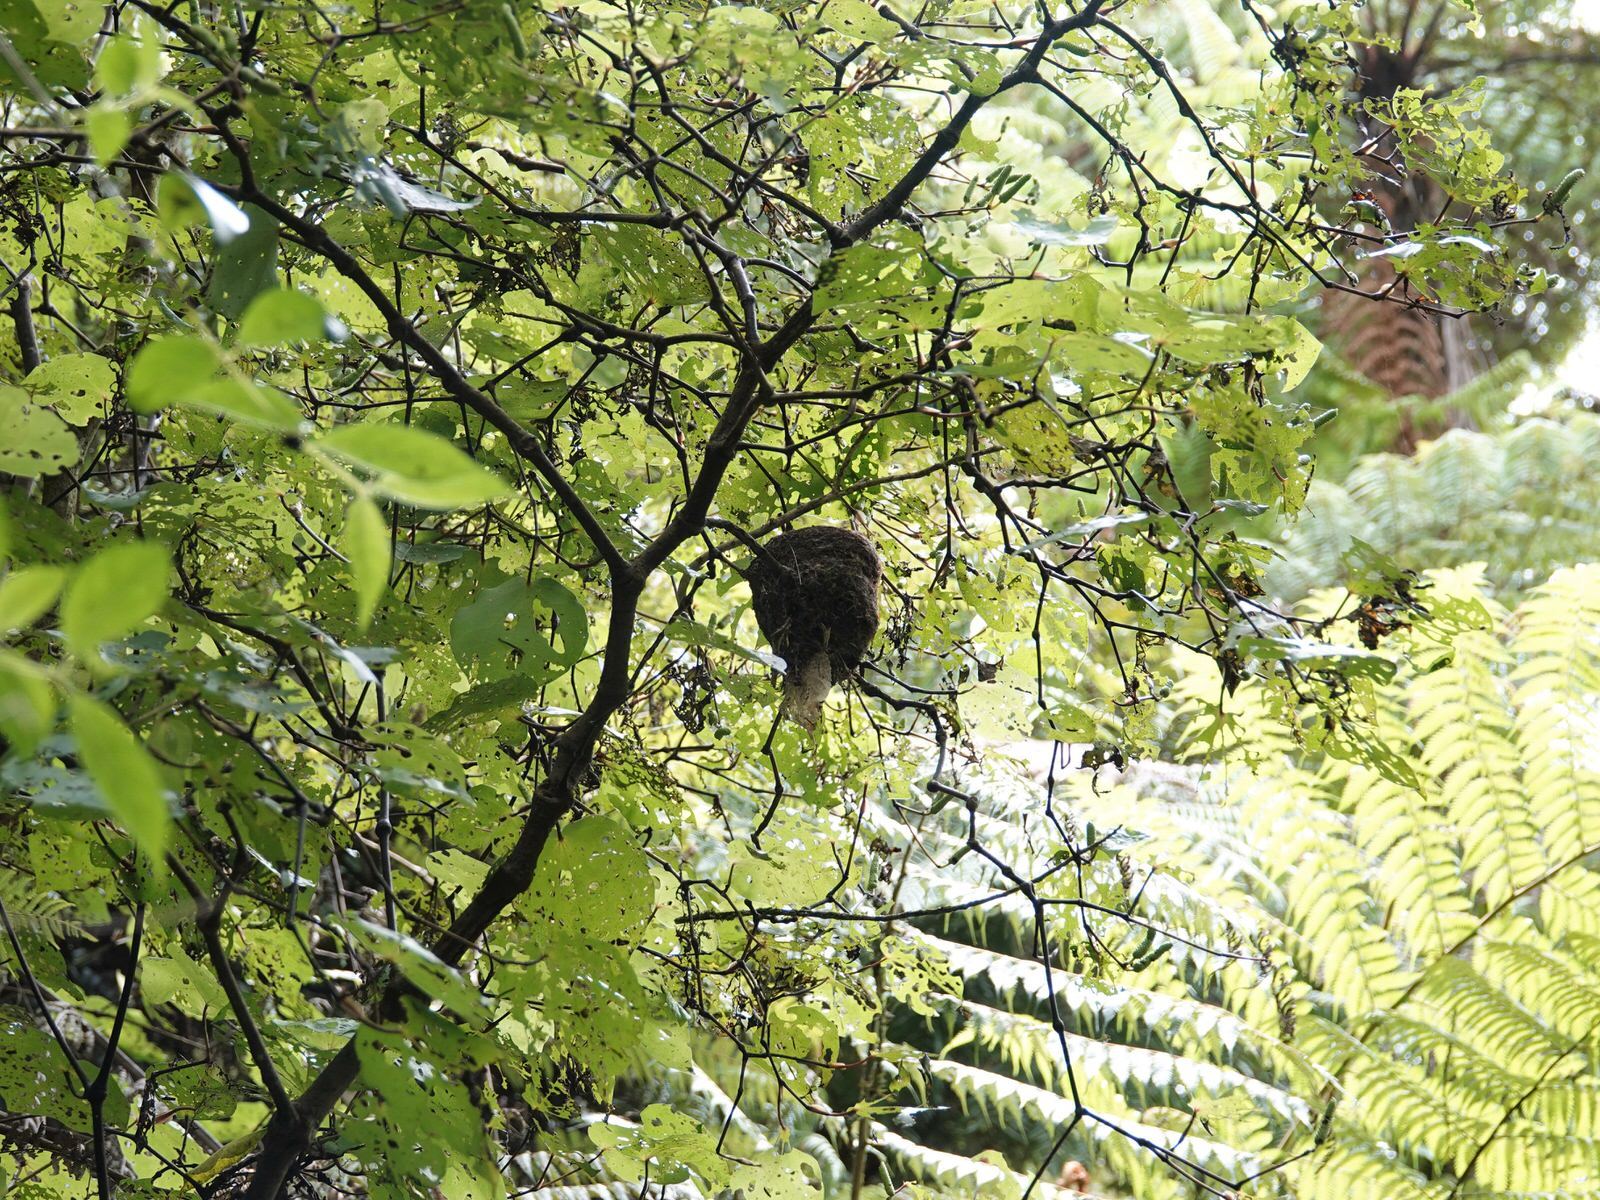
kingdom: Animalia
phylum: Chordata
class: Aves
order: Passeriformes
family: Rhipiduridae
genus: Rhipidura
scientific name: Rhipidura fuliginosa
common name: New zealand fantail
